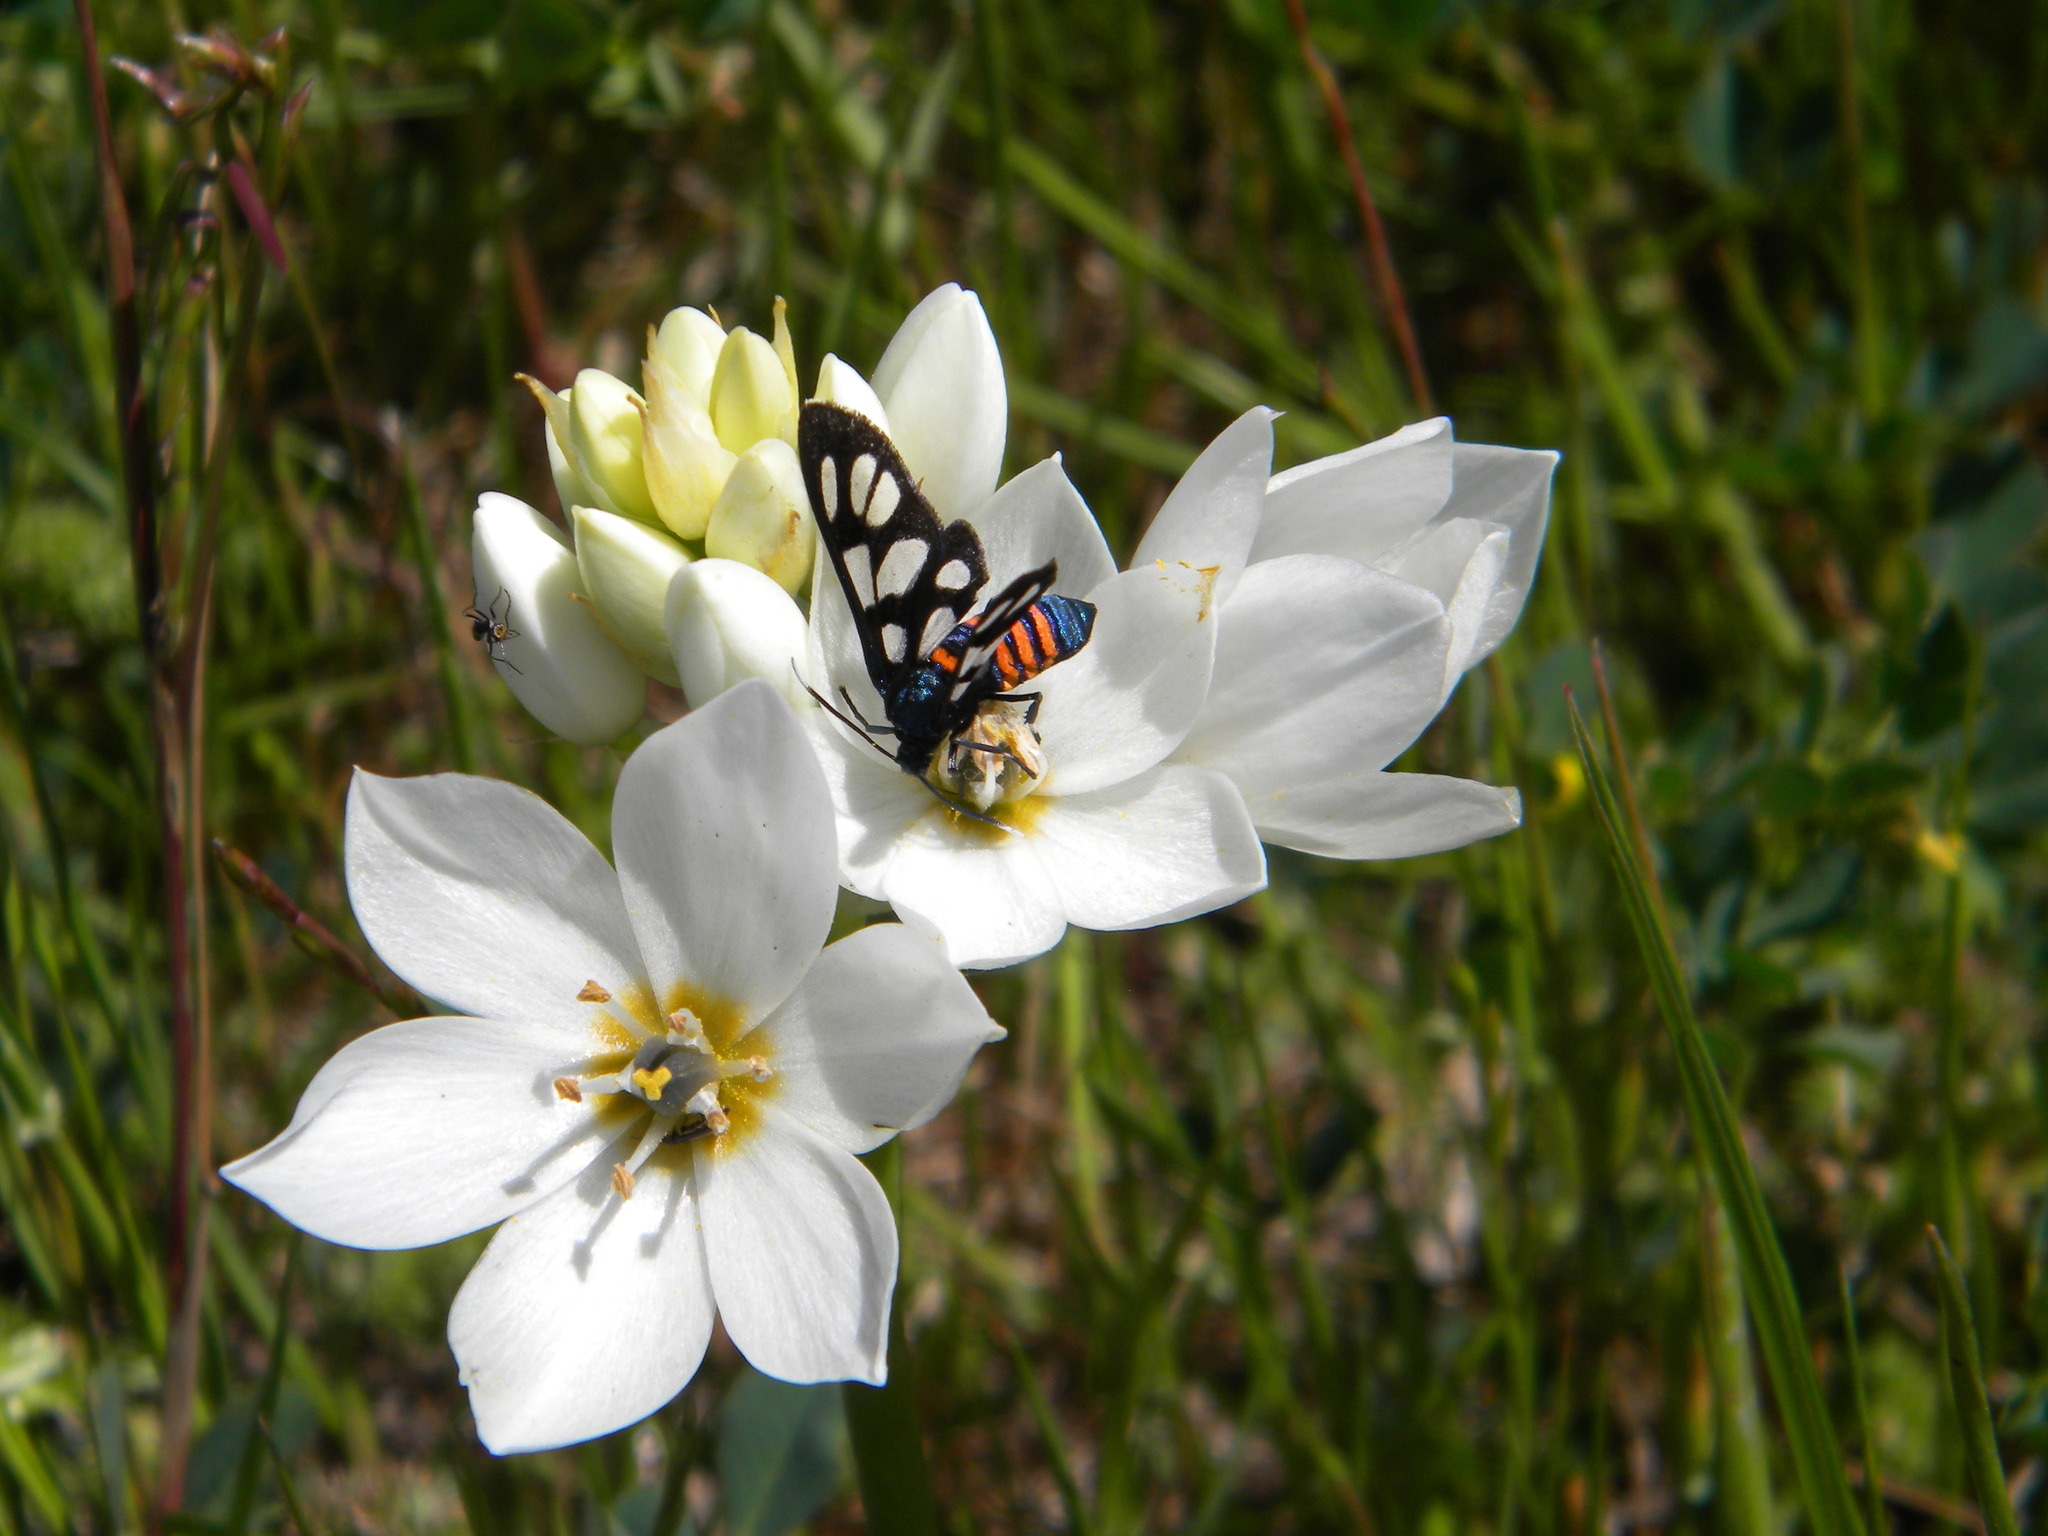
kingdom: Animalia
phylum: Arthropoda
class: Insecta
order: Lepidoptera
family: Erebidae
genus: Amata
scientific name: Amata cerbera
